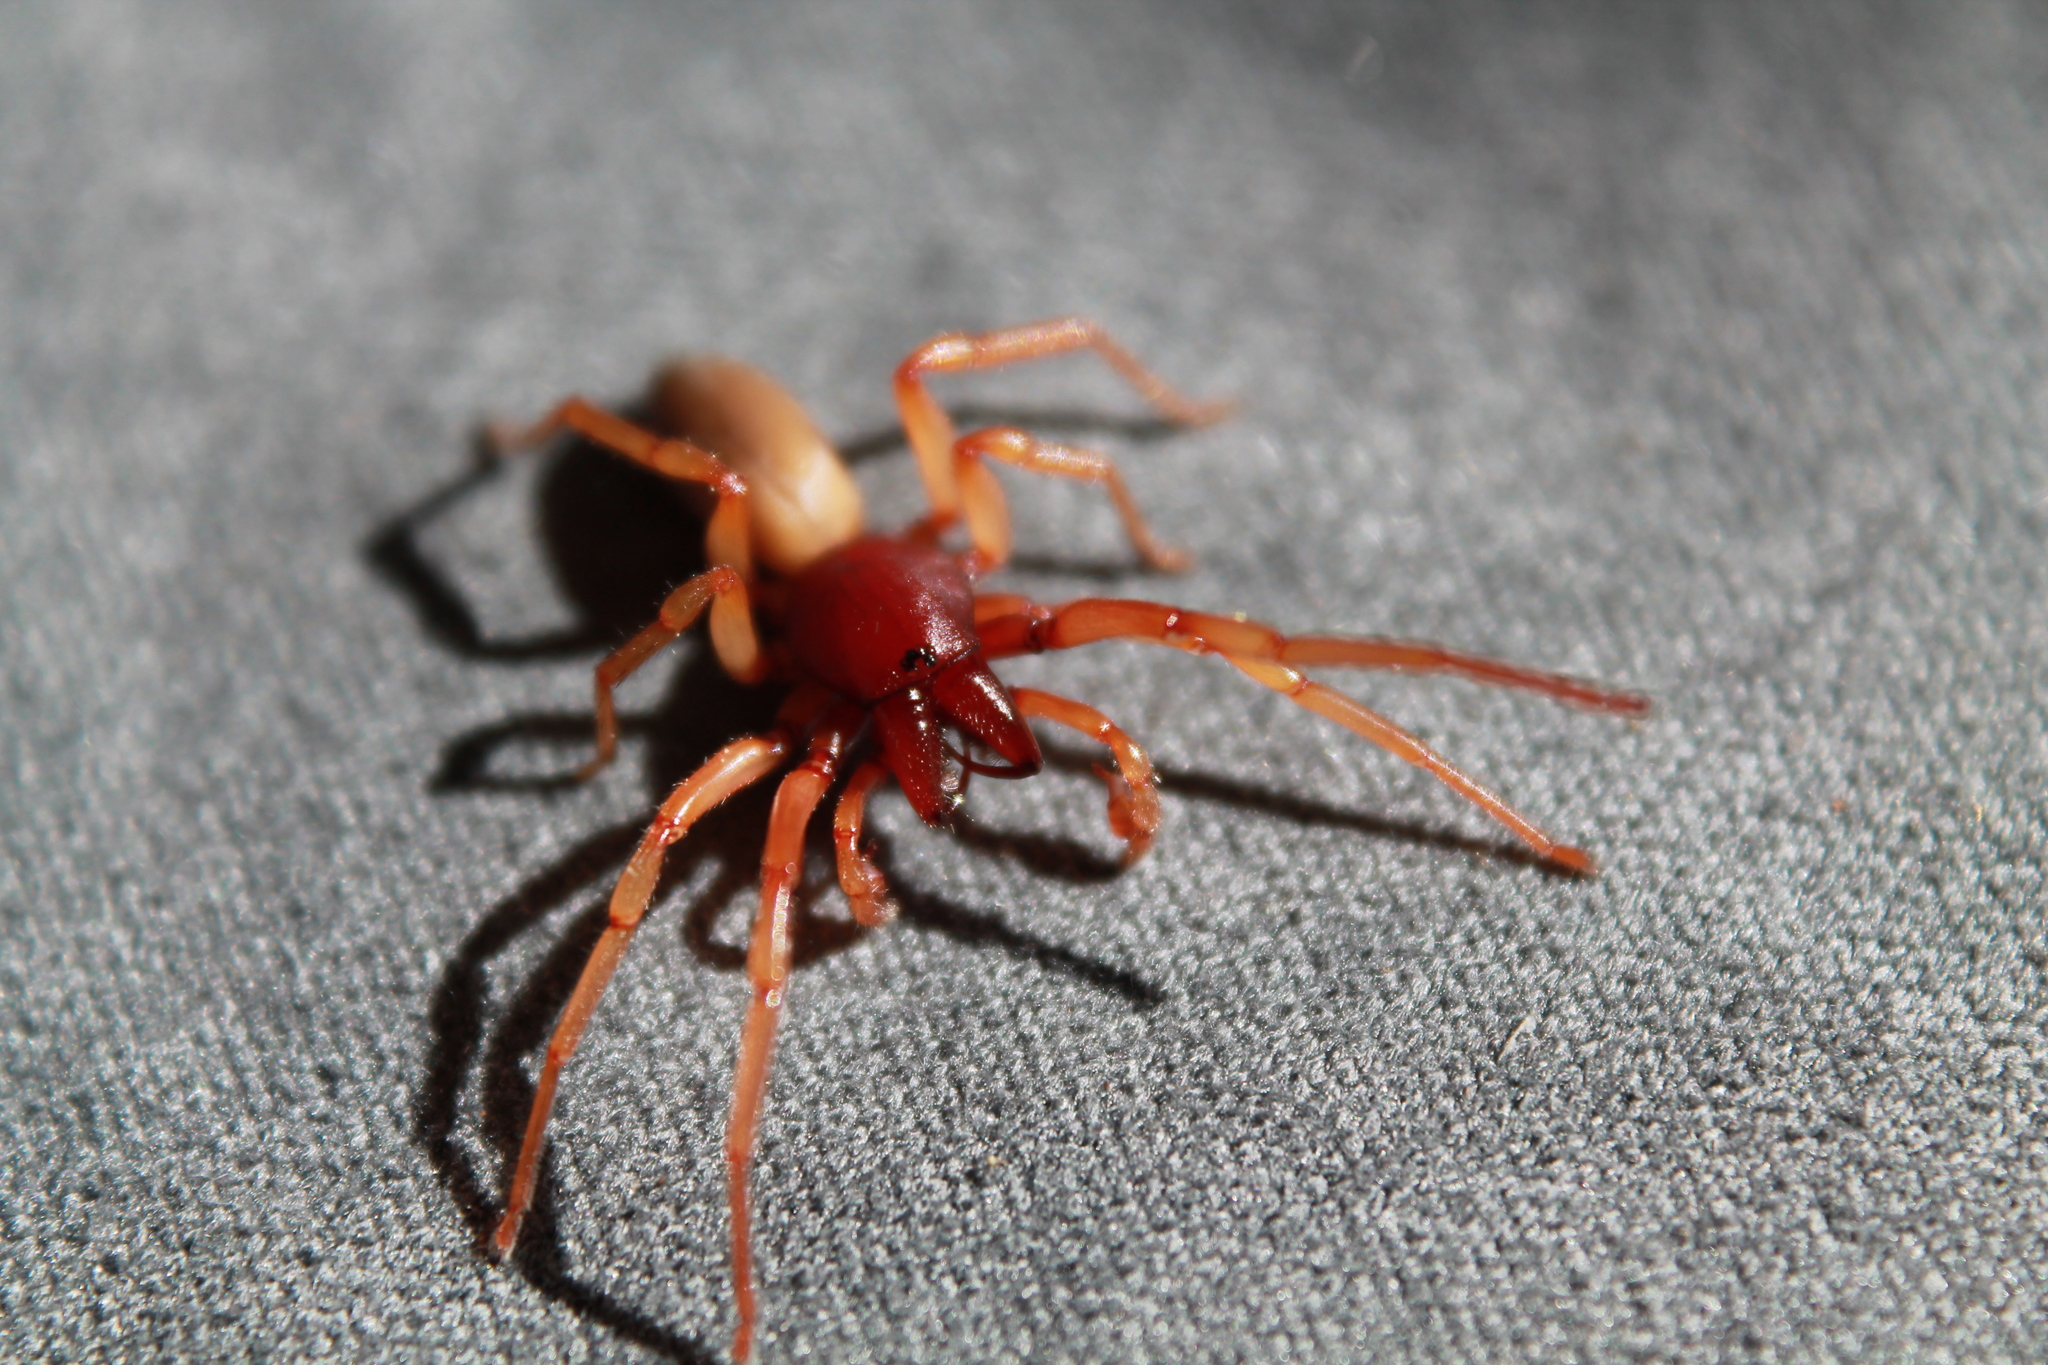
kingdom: Animalia
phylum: Arthropoda
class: Arachnida
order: Araneae
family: Dysderidae
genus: Dysdera
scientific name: Dysdera crocata
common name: Woodlouse spider
